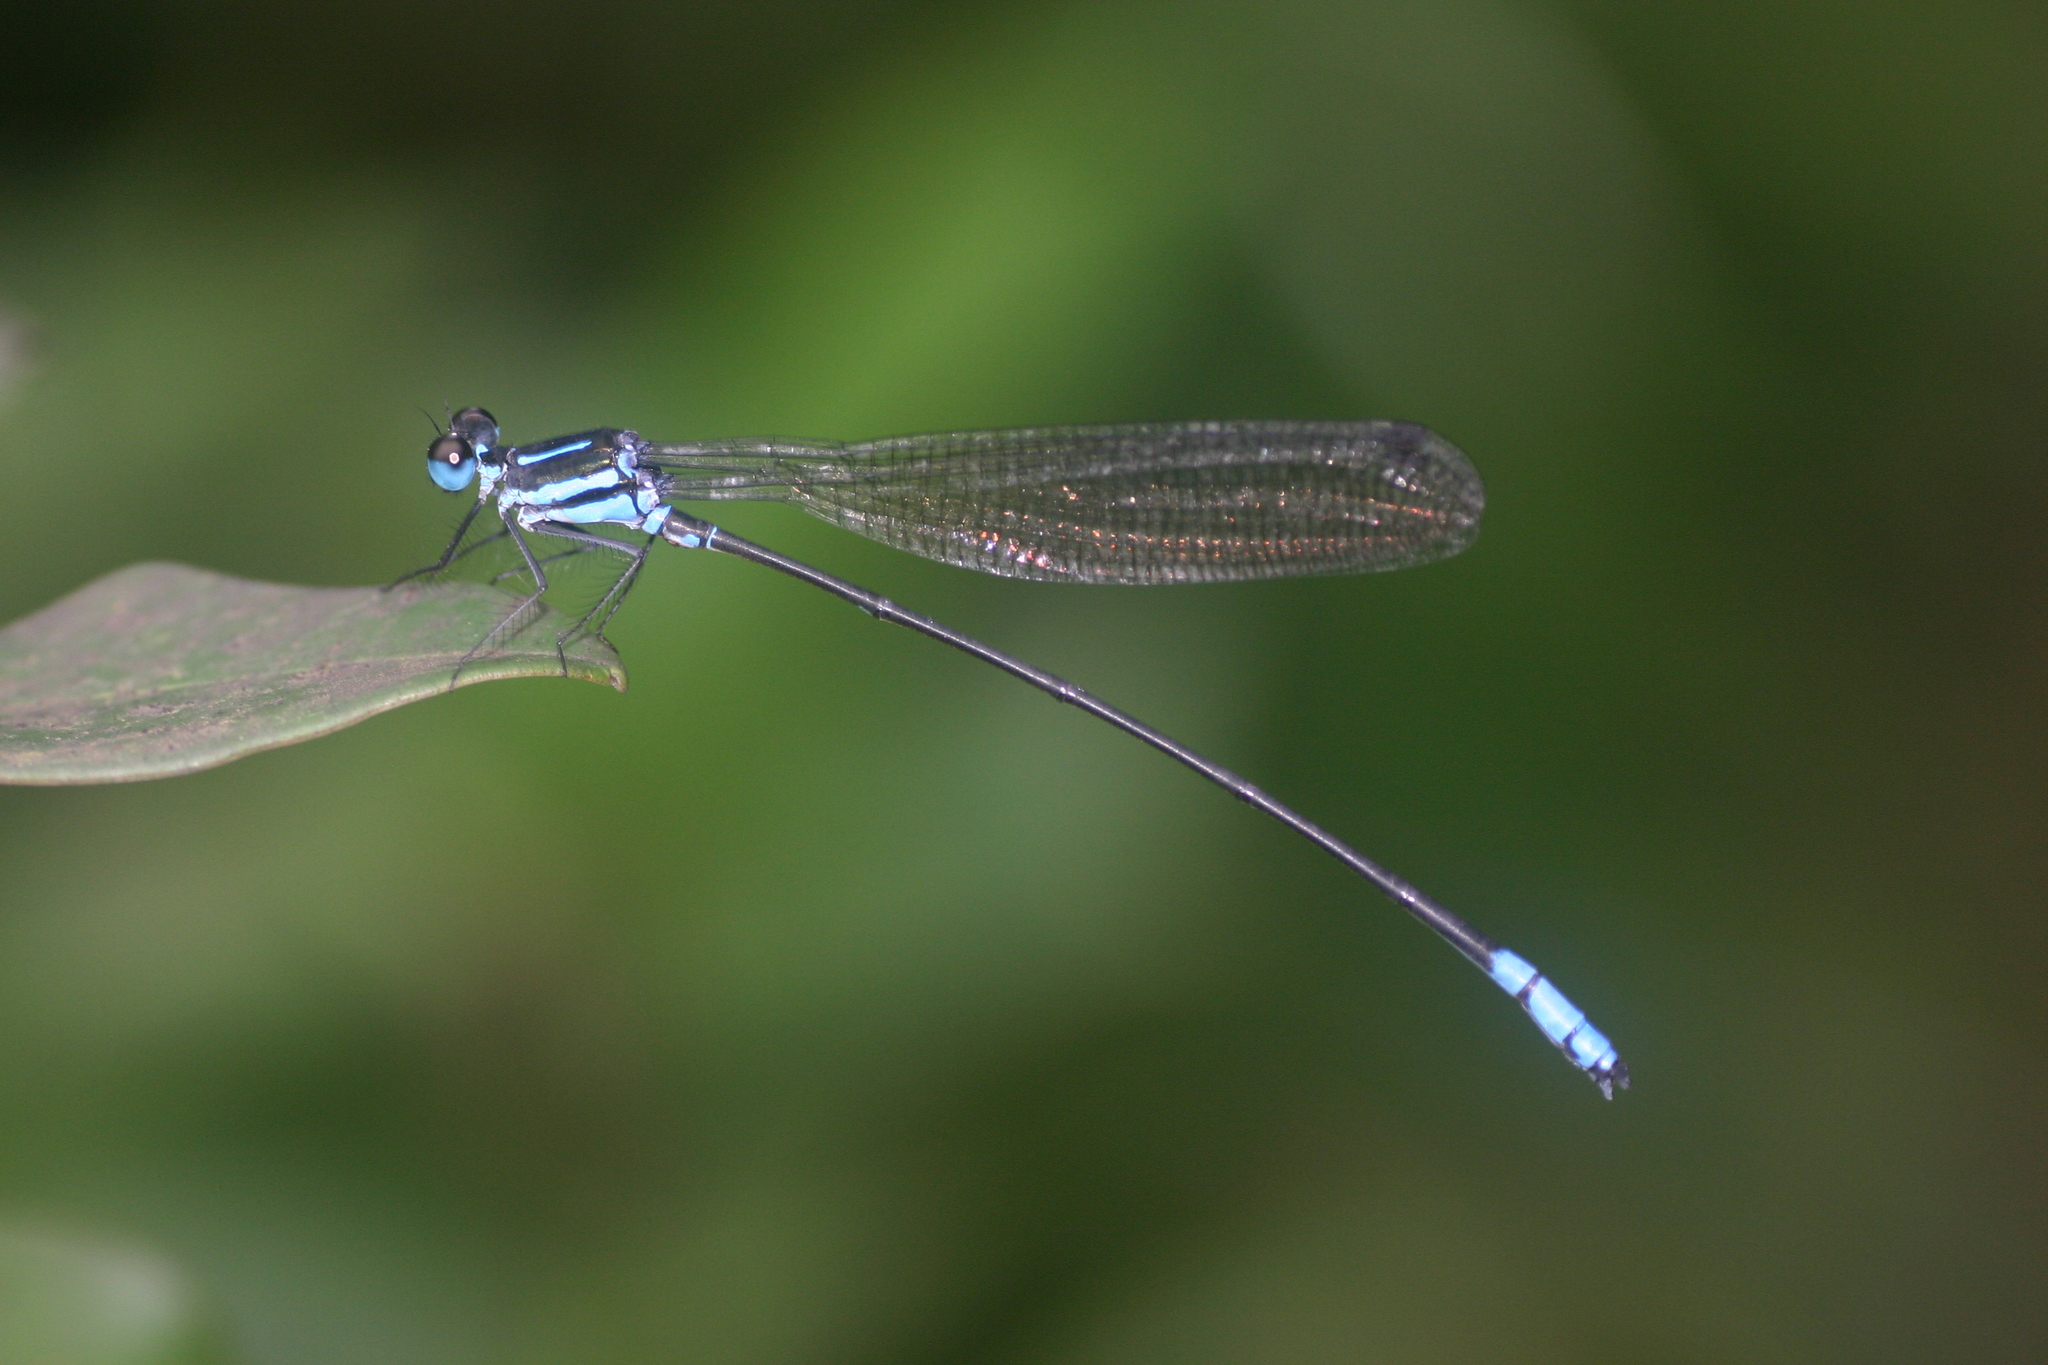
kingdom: Animalia
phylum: Arthropoda
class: Insecta
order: Odonata
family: Platycnemididae
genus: Phylloneura
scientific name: Phylloneura westermanni
